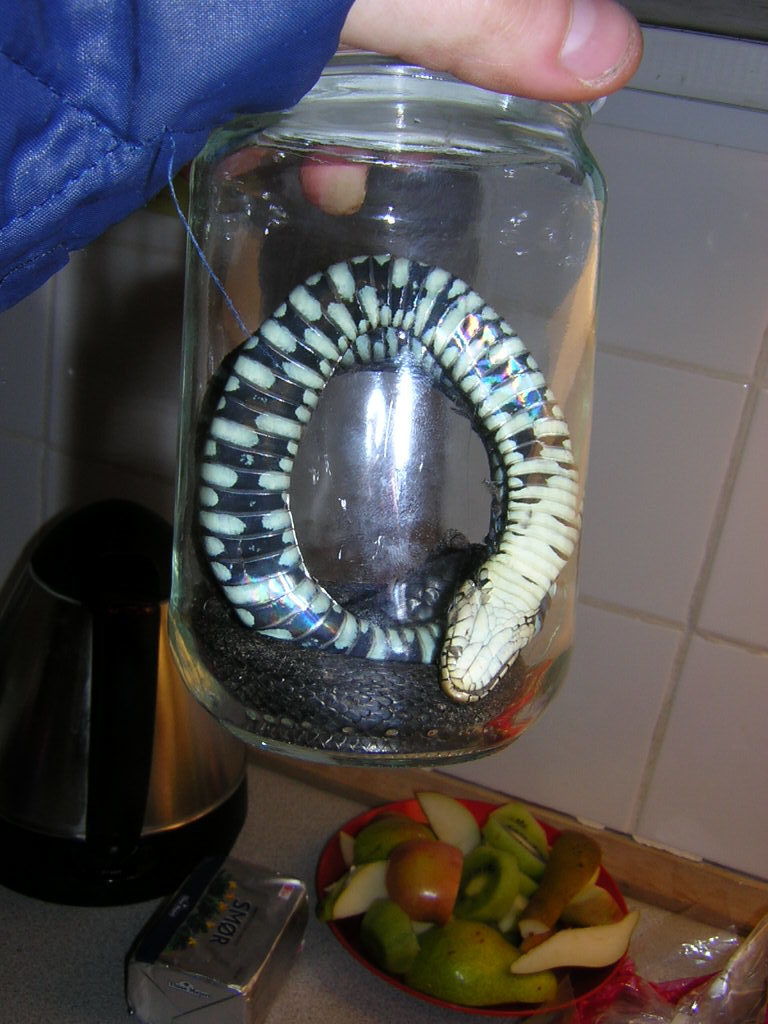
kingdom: Animalia
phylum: Chordata
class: Squamata
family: Colubridae
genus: Natrix
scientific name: Natrix natrix
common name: Grass snake
